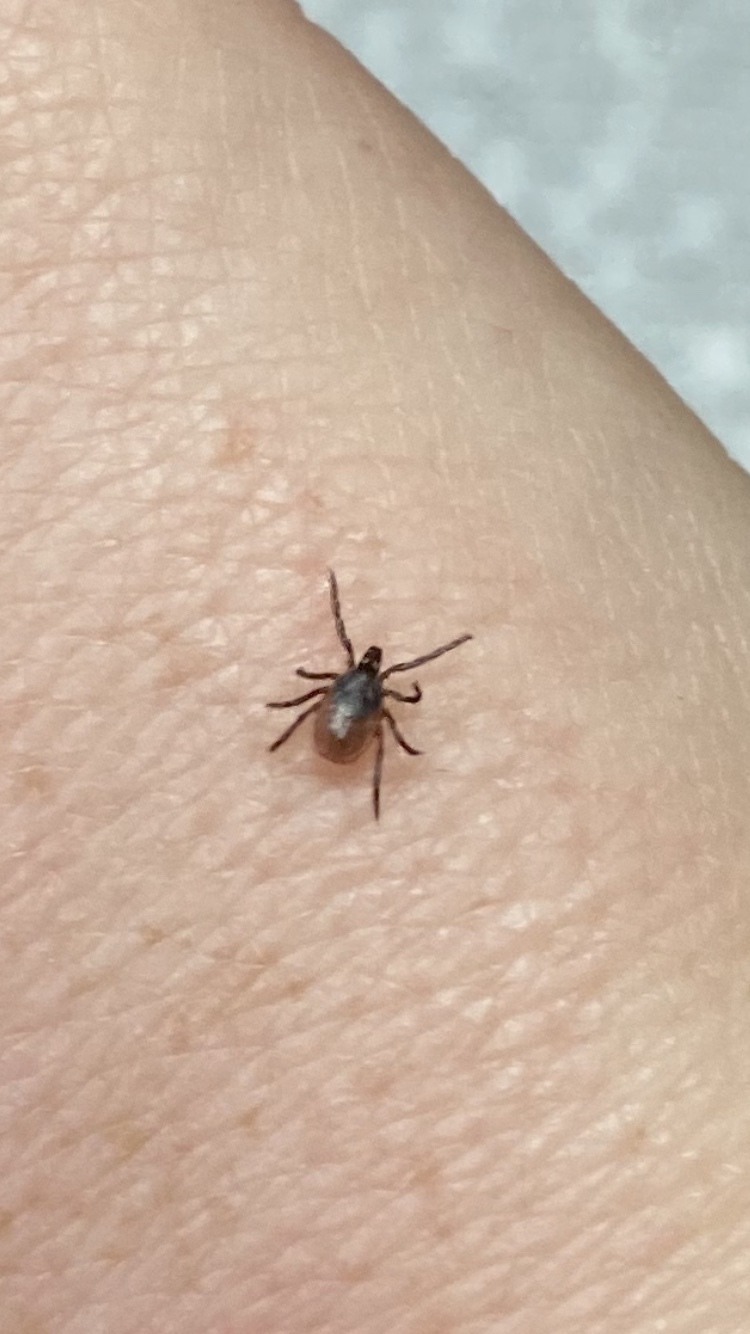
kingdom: Animalia
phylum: Arthropoda
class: Arachnida
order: Ixodida
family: Ixodidae
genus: Ixodes
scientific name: Ixodes scapularis
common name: Black legged tick
